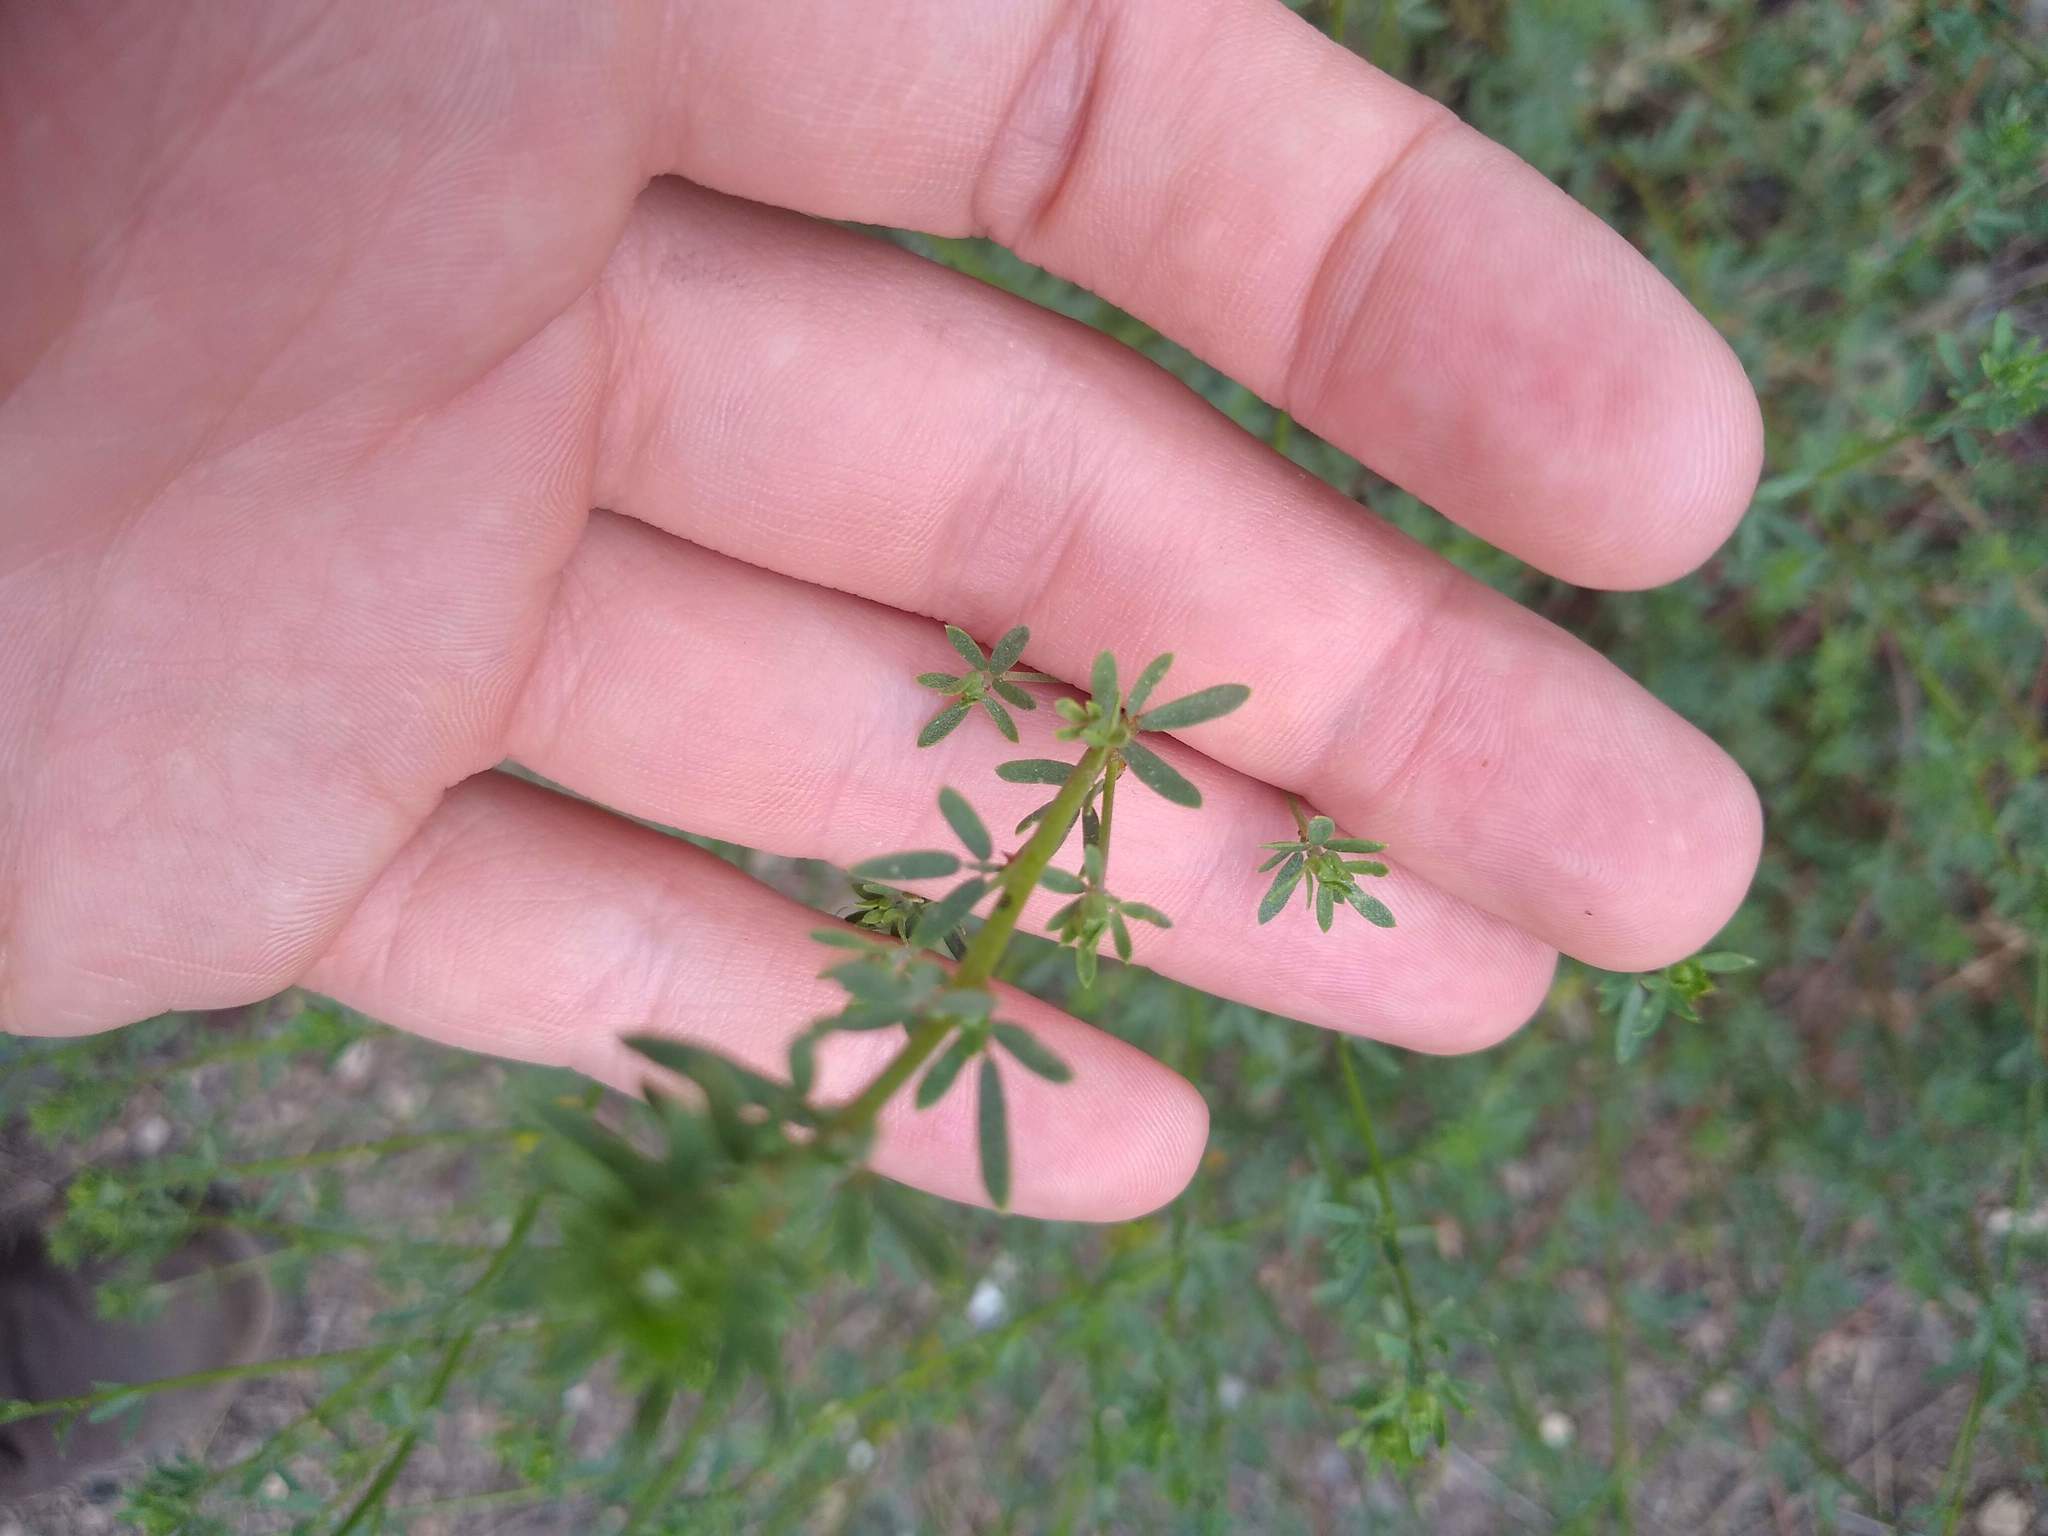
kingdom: Plantae
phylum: Tracheophyta
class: Magnoliopsida
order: Fabales
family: Fabaceae
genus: Acmispon
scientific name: Acmispon glaber
